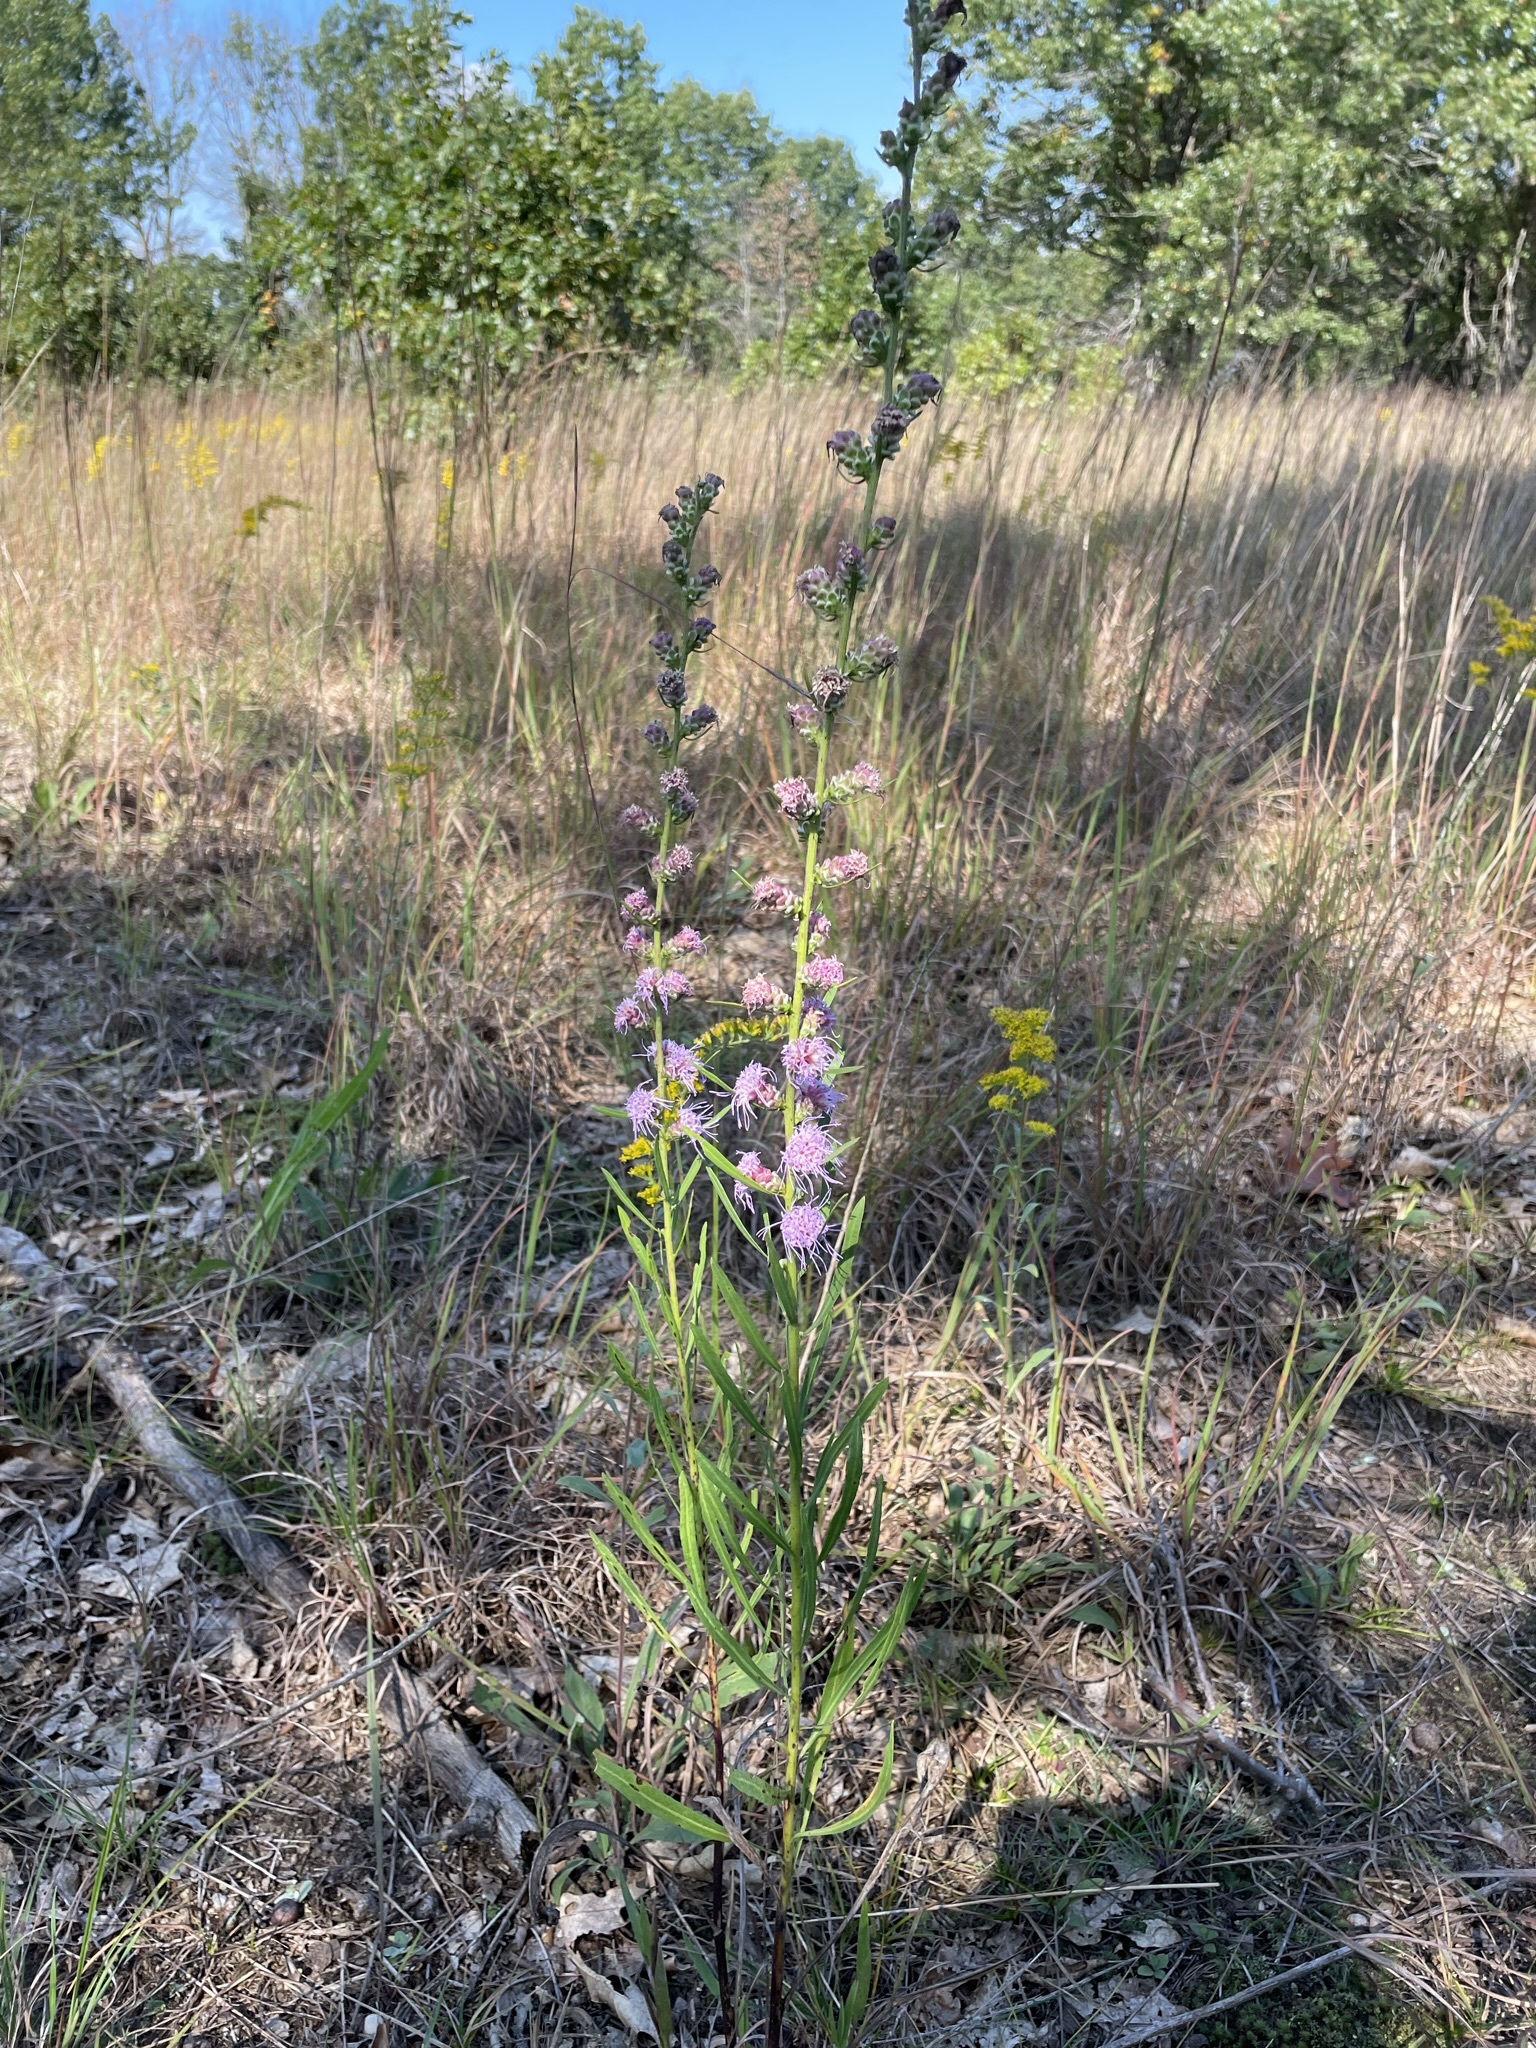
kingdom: Plantae
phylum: Tracheophyta
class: Magnoliopsida
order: Asterales
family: Asteraceae
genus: Liatris
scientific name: Liatris aspera
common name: Lacerate blazing-star
